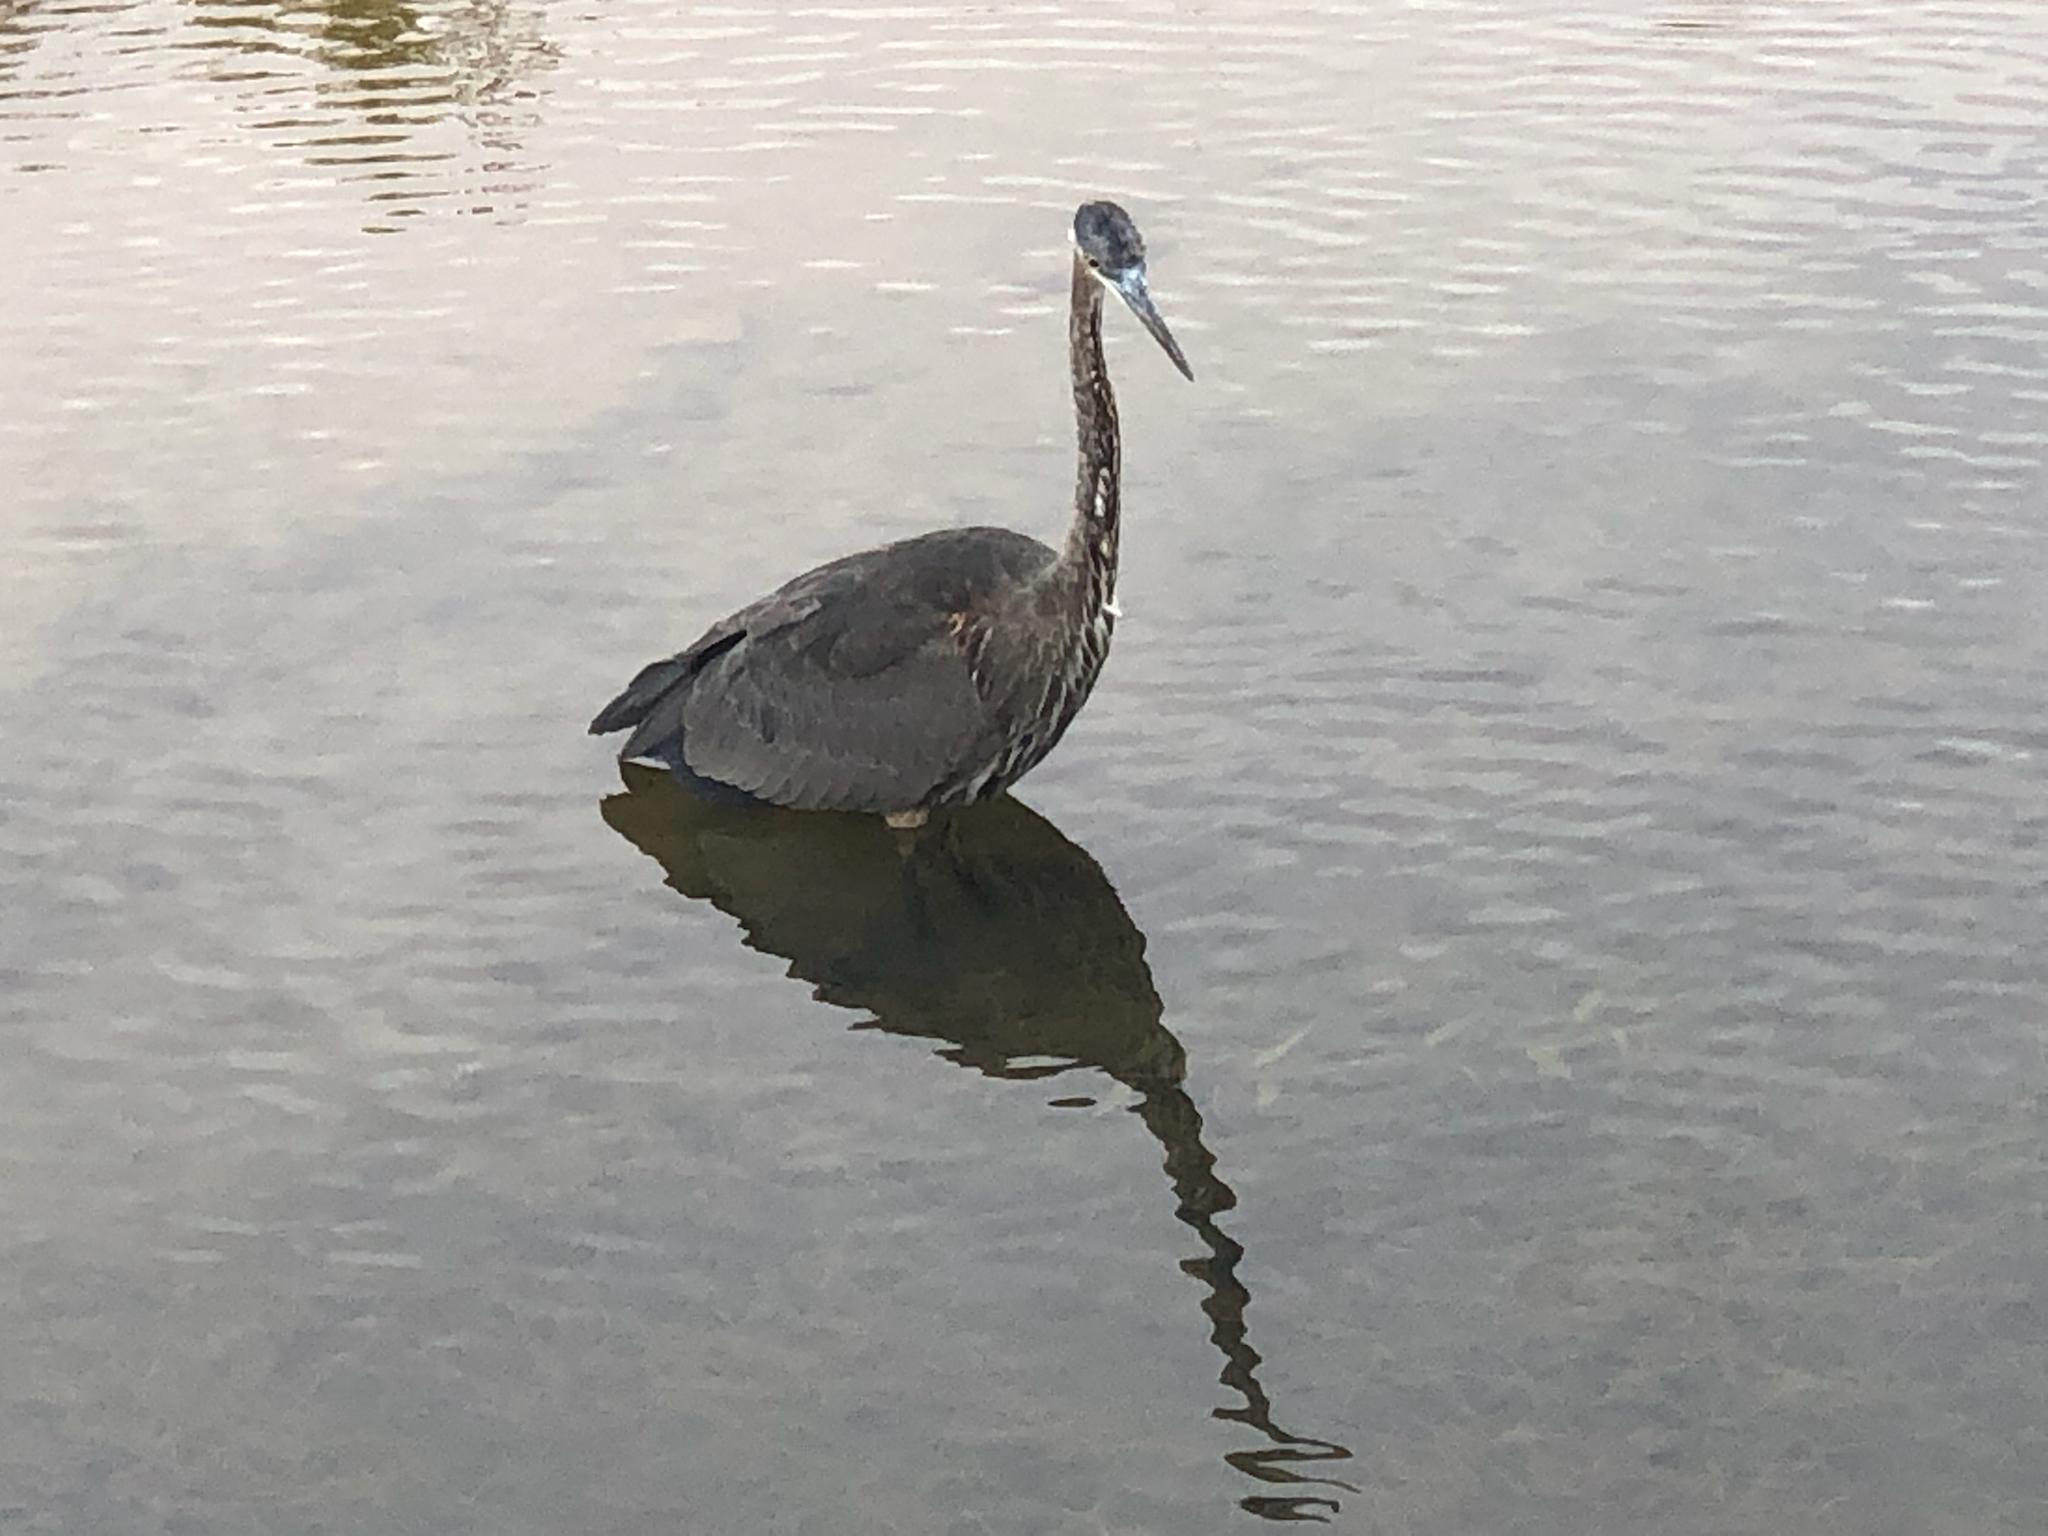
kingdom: Animalia
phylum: Chordata
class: Aves
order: Pelecaniformes
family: Ardeidae
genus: Ardea
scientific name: Ardea herodias
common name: Great blue heron
